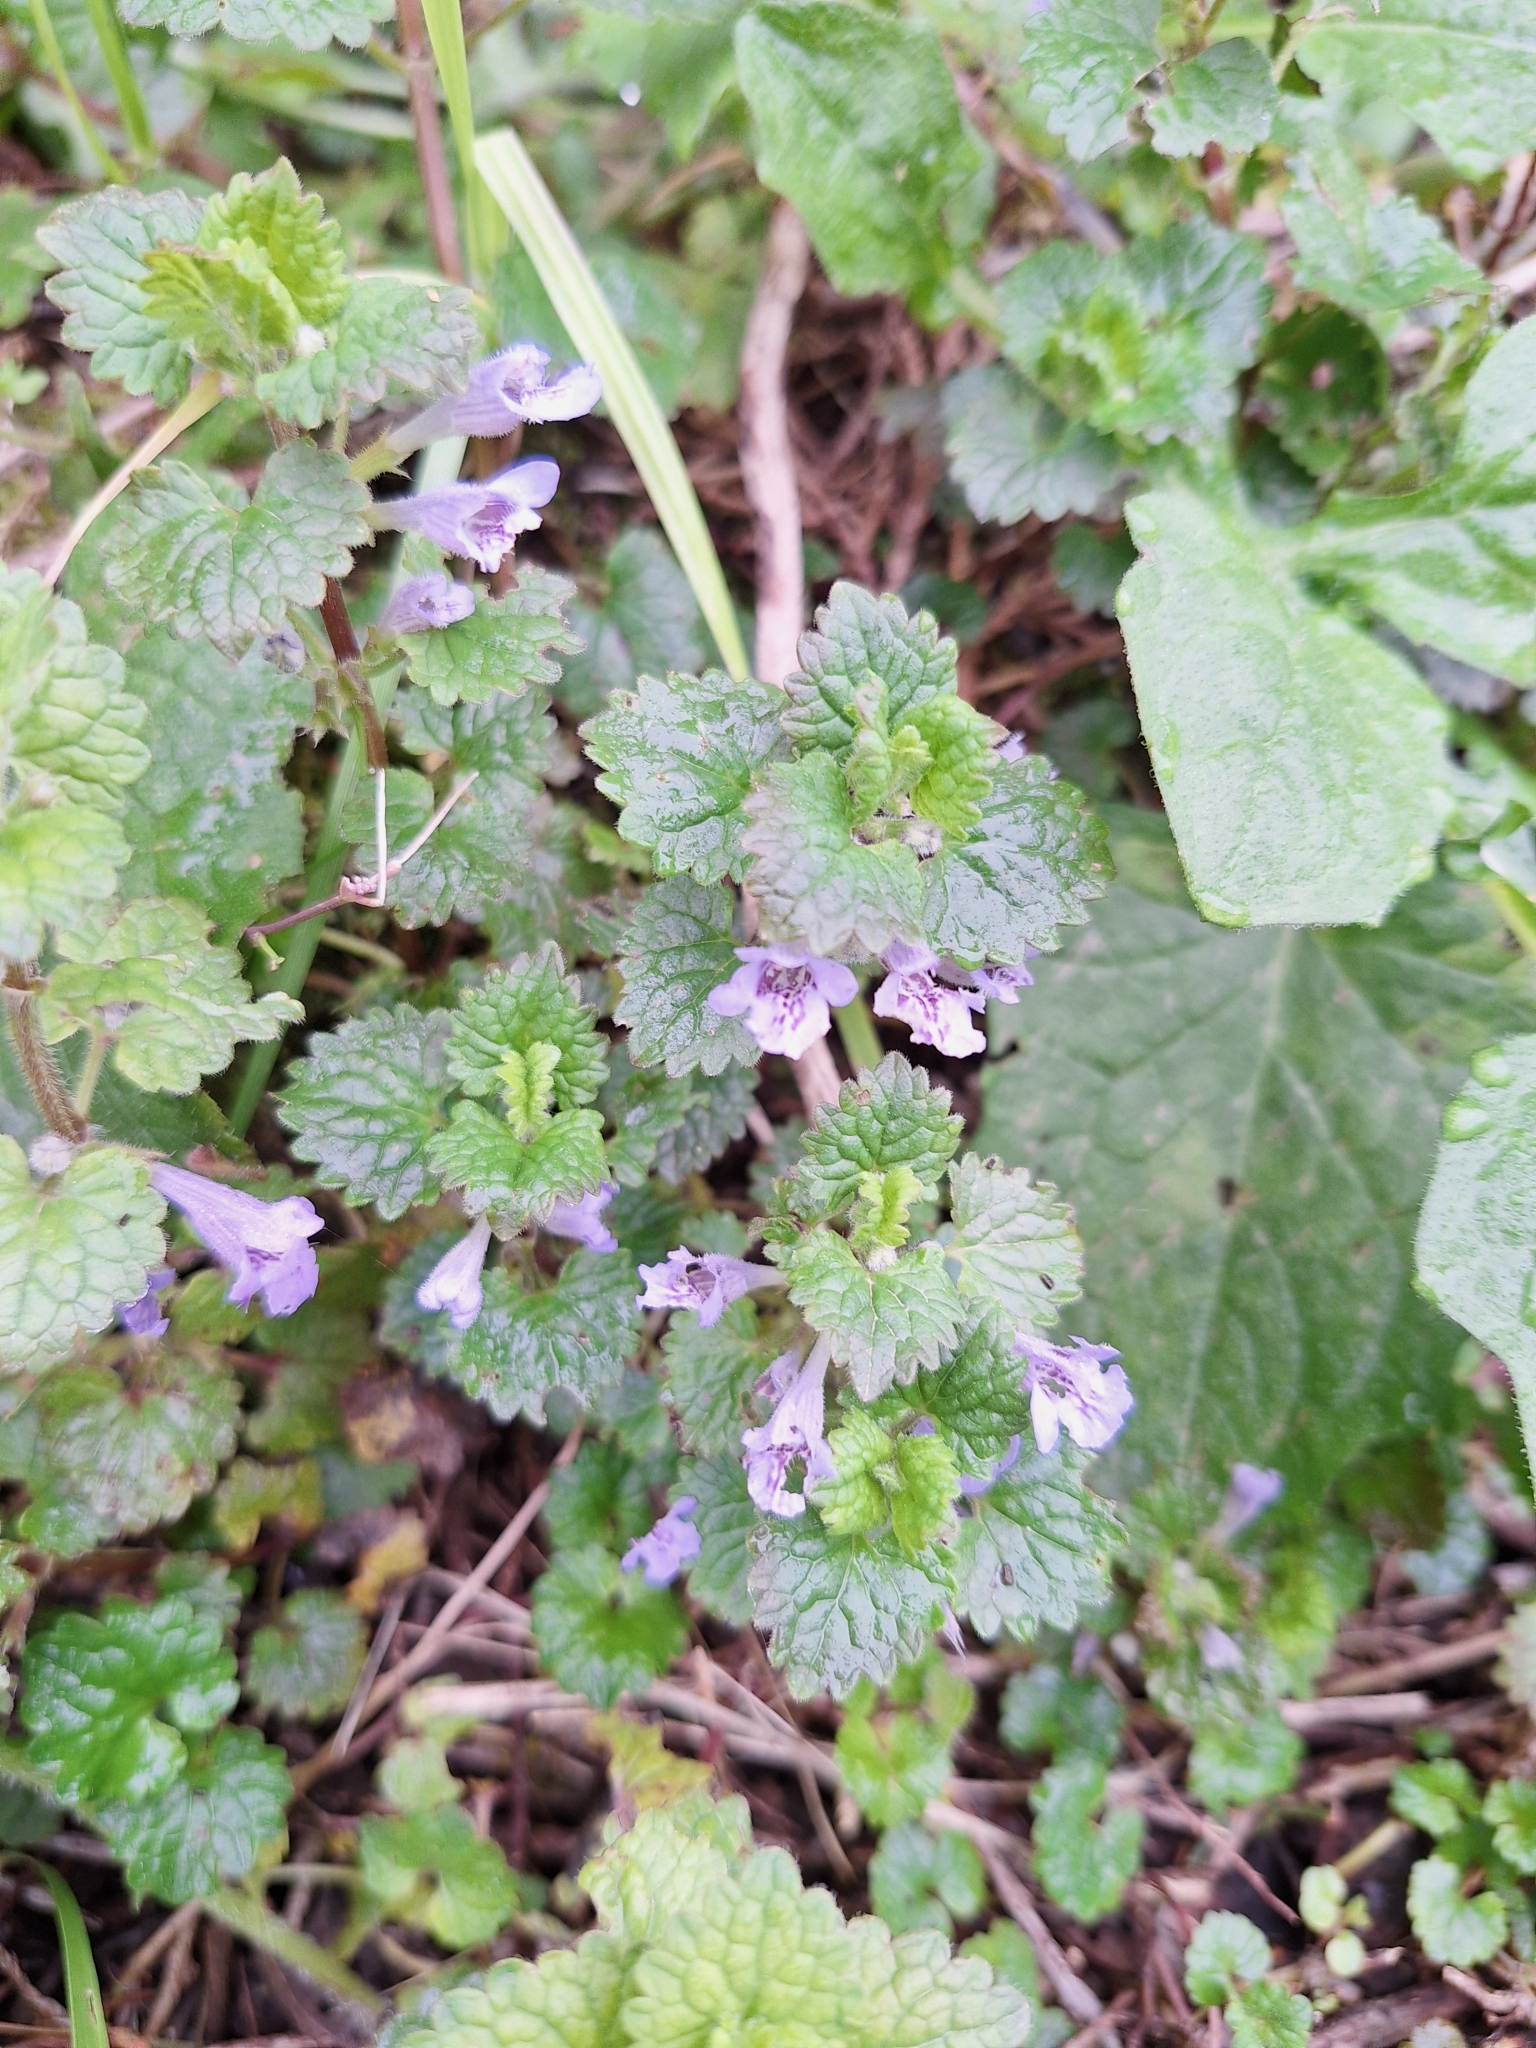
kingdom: Plantae
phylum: Tracheophyta
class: Magnoliopsida
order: Lamiales
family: Lamiaceae
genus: Glechoma
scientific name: Glechoma hederacea
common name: Ground ivy
